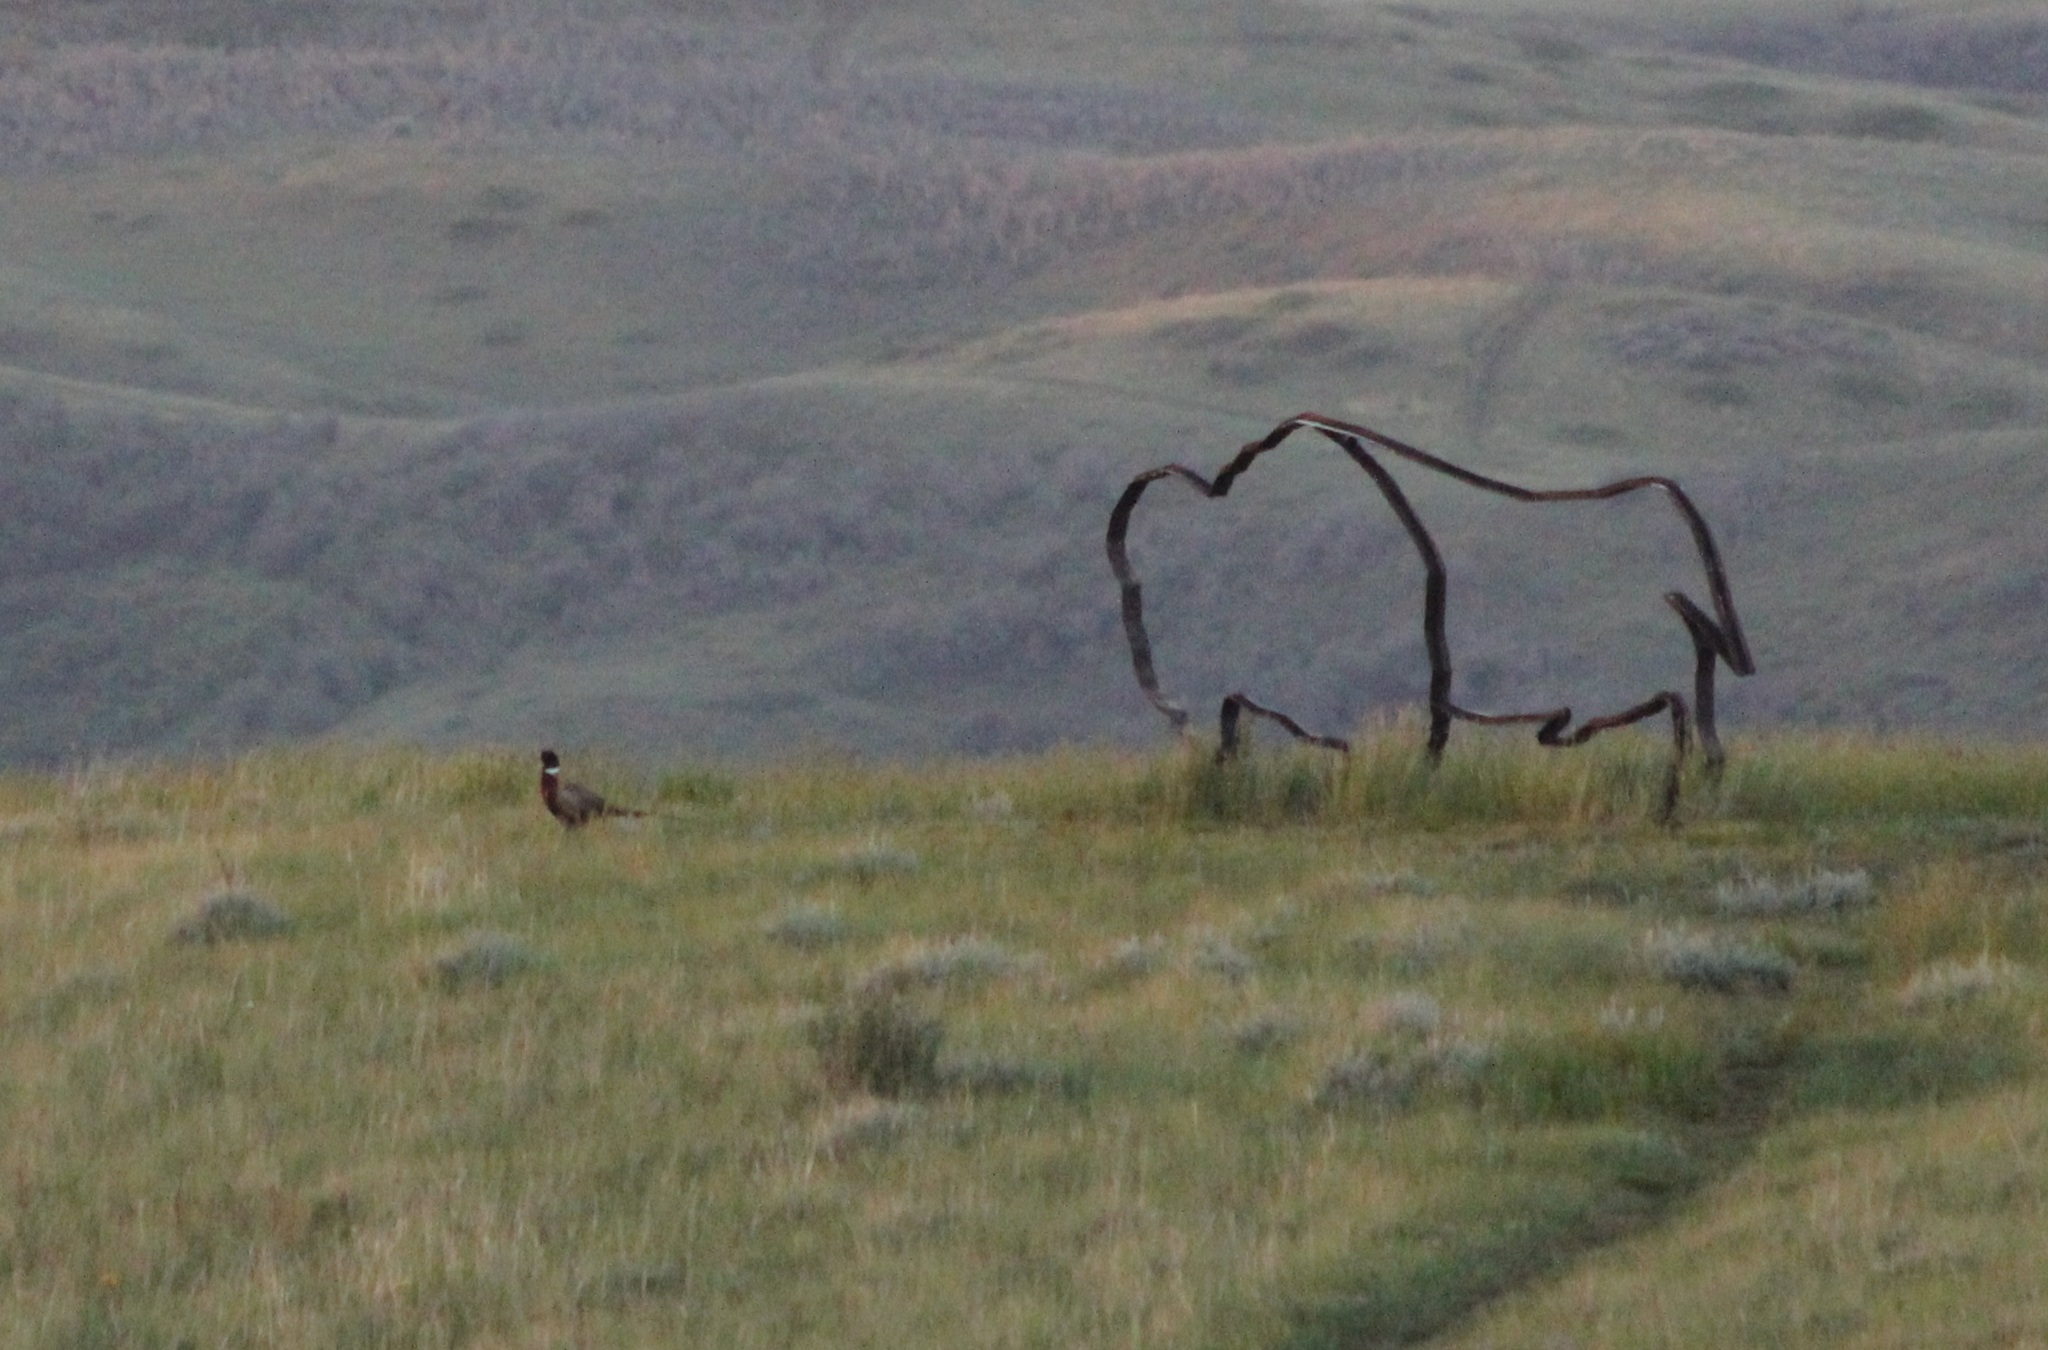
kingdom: Animalia
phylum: Chordata
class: Aves
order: Galliformes
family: Phasianidae
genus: Phasianus
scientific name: Phasianus colchicus
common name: Common pheasant
